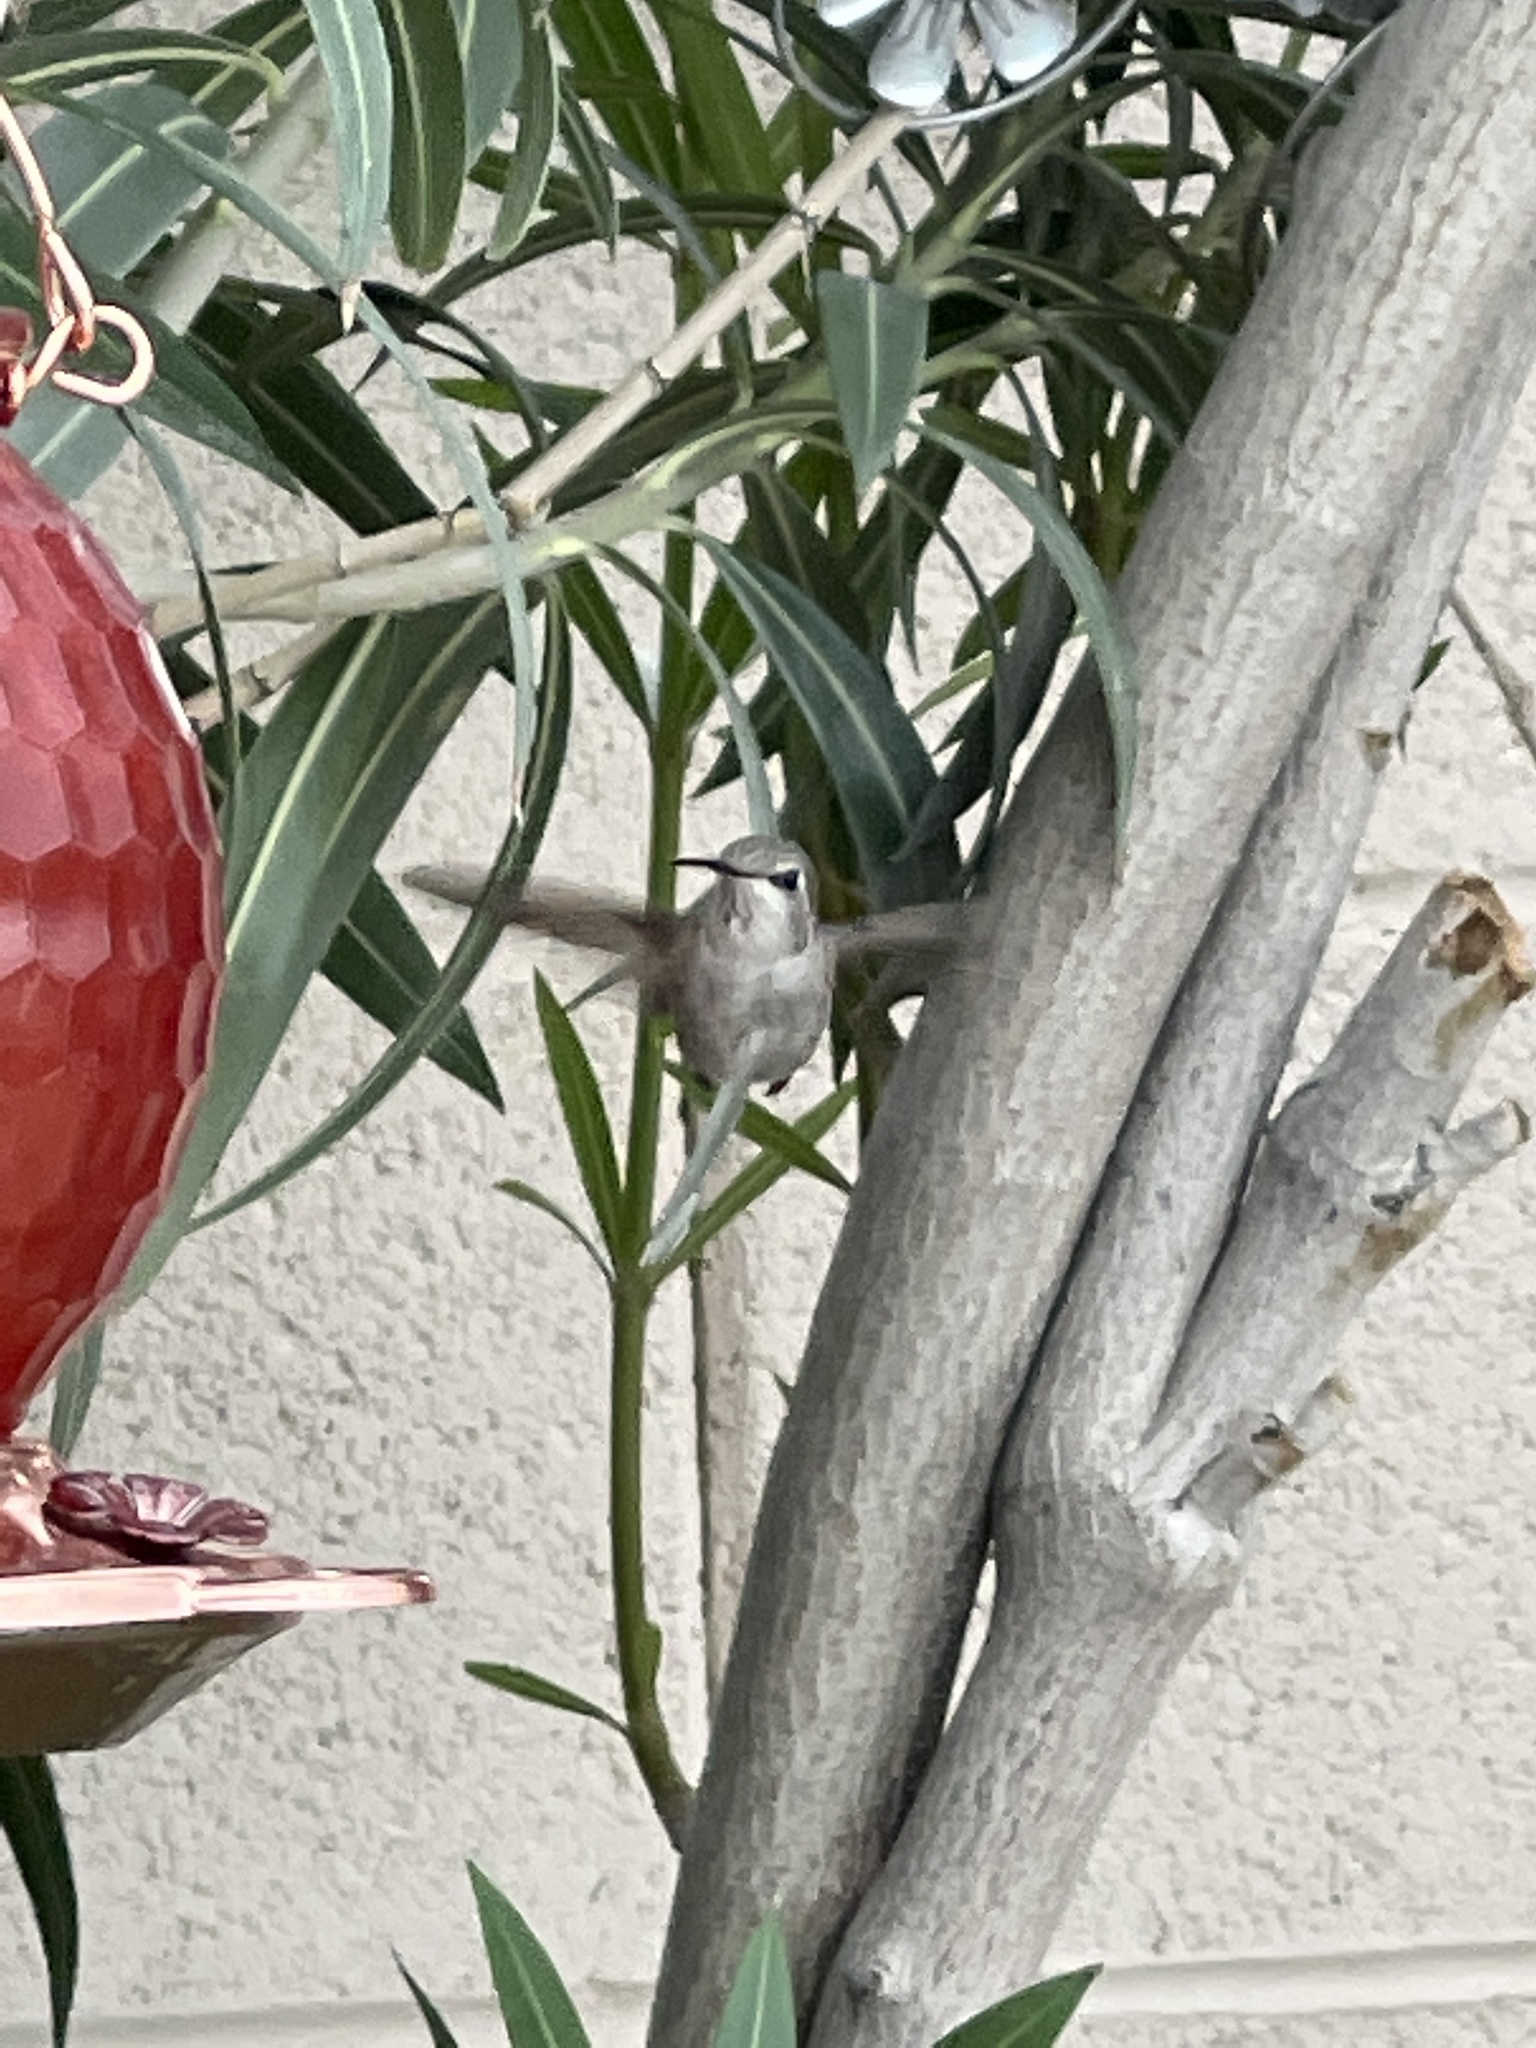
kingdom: Animalia
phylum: Chordata
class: Aves
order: Apodiformes
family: Trochilidae
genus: Calypte
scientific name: Calypte costae
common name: Costa's hummingbird
